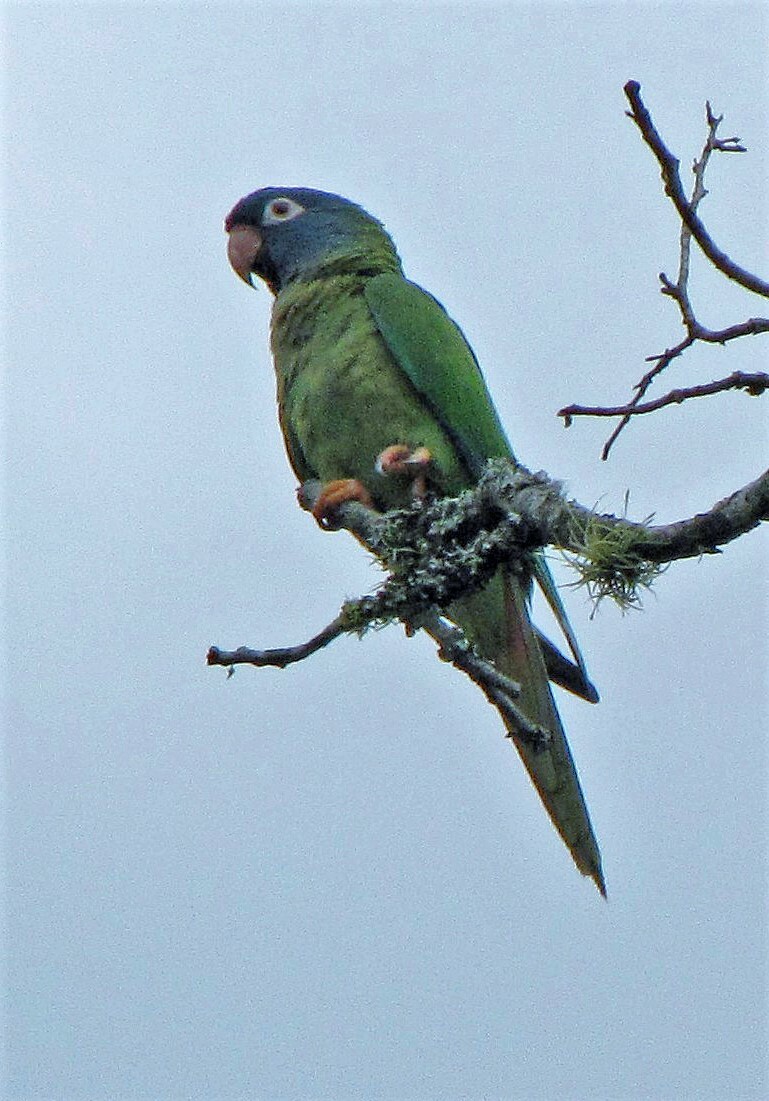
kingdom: Animalia
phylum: Chordata
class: Aves
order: Psittaciformes
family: Psittacidae
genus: Aratinga
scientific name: Aratinga acuticaudata
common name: Blue-crowned parakeet
